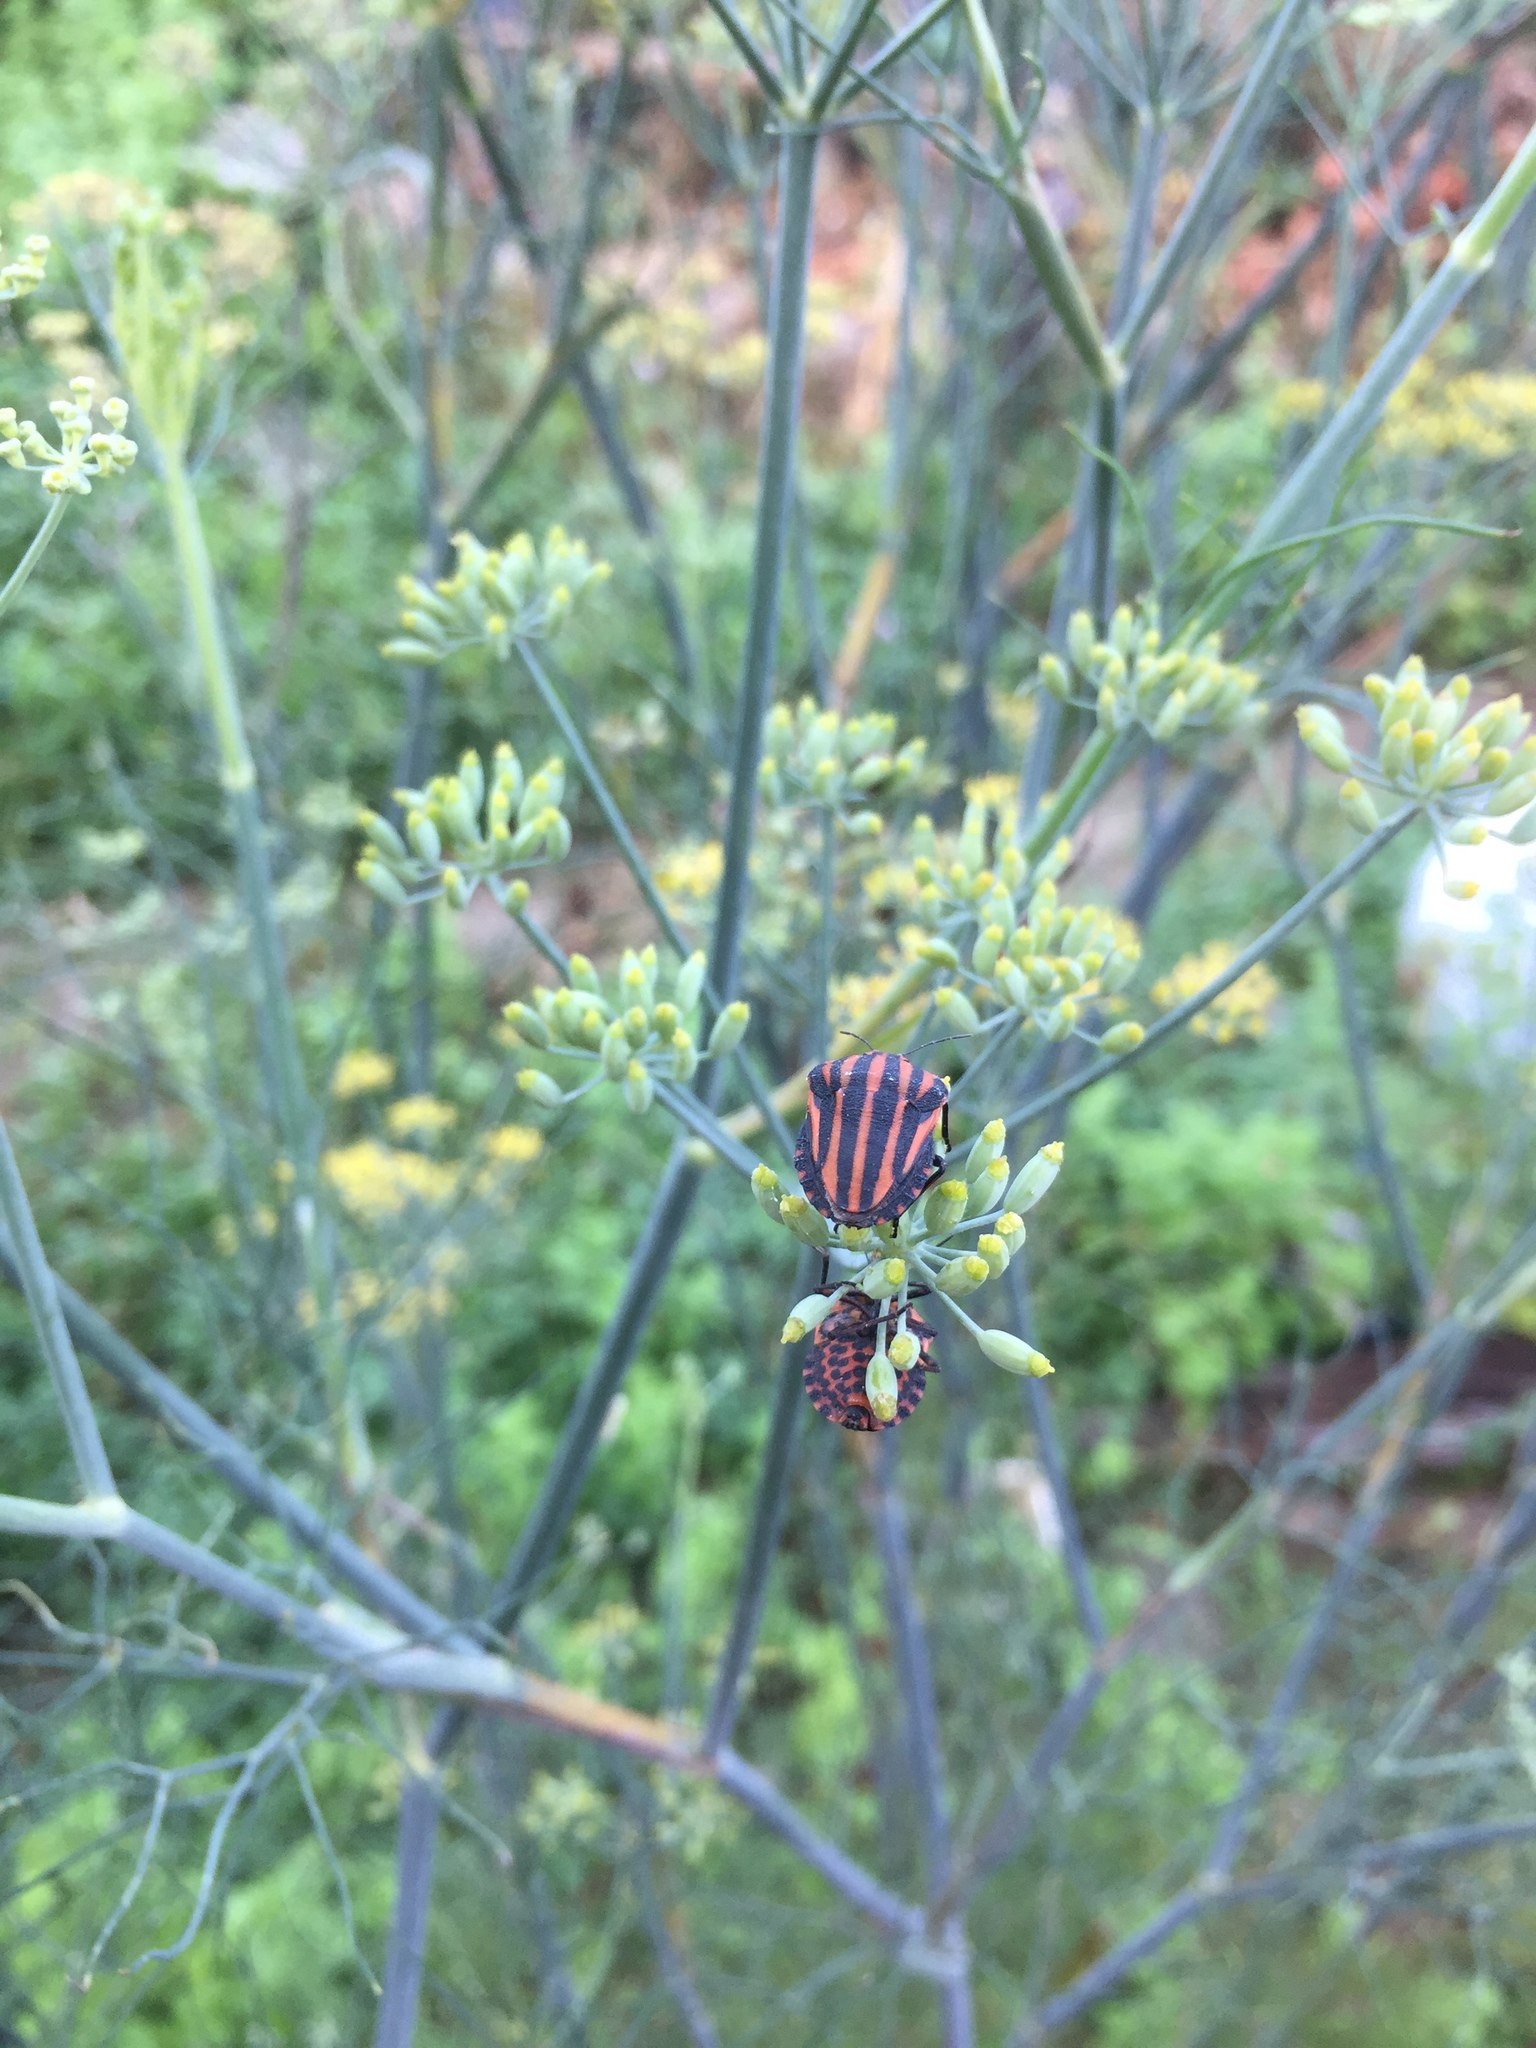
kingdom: Animalia
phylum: Arthropoda
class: Insecta
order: Hemiptera
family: Pentatomidae
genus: Graphosoma
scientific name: Graphosoma rubrolineatum
